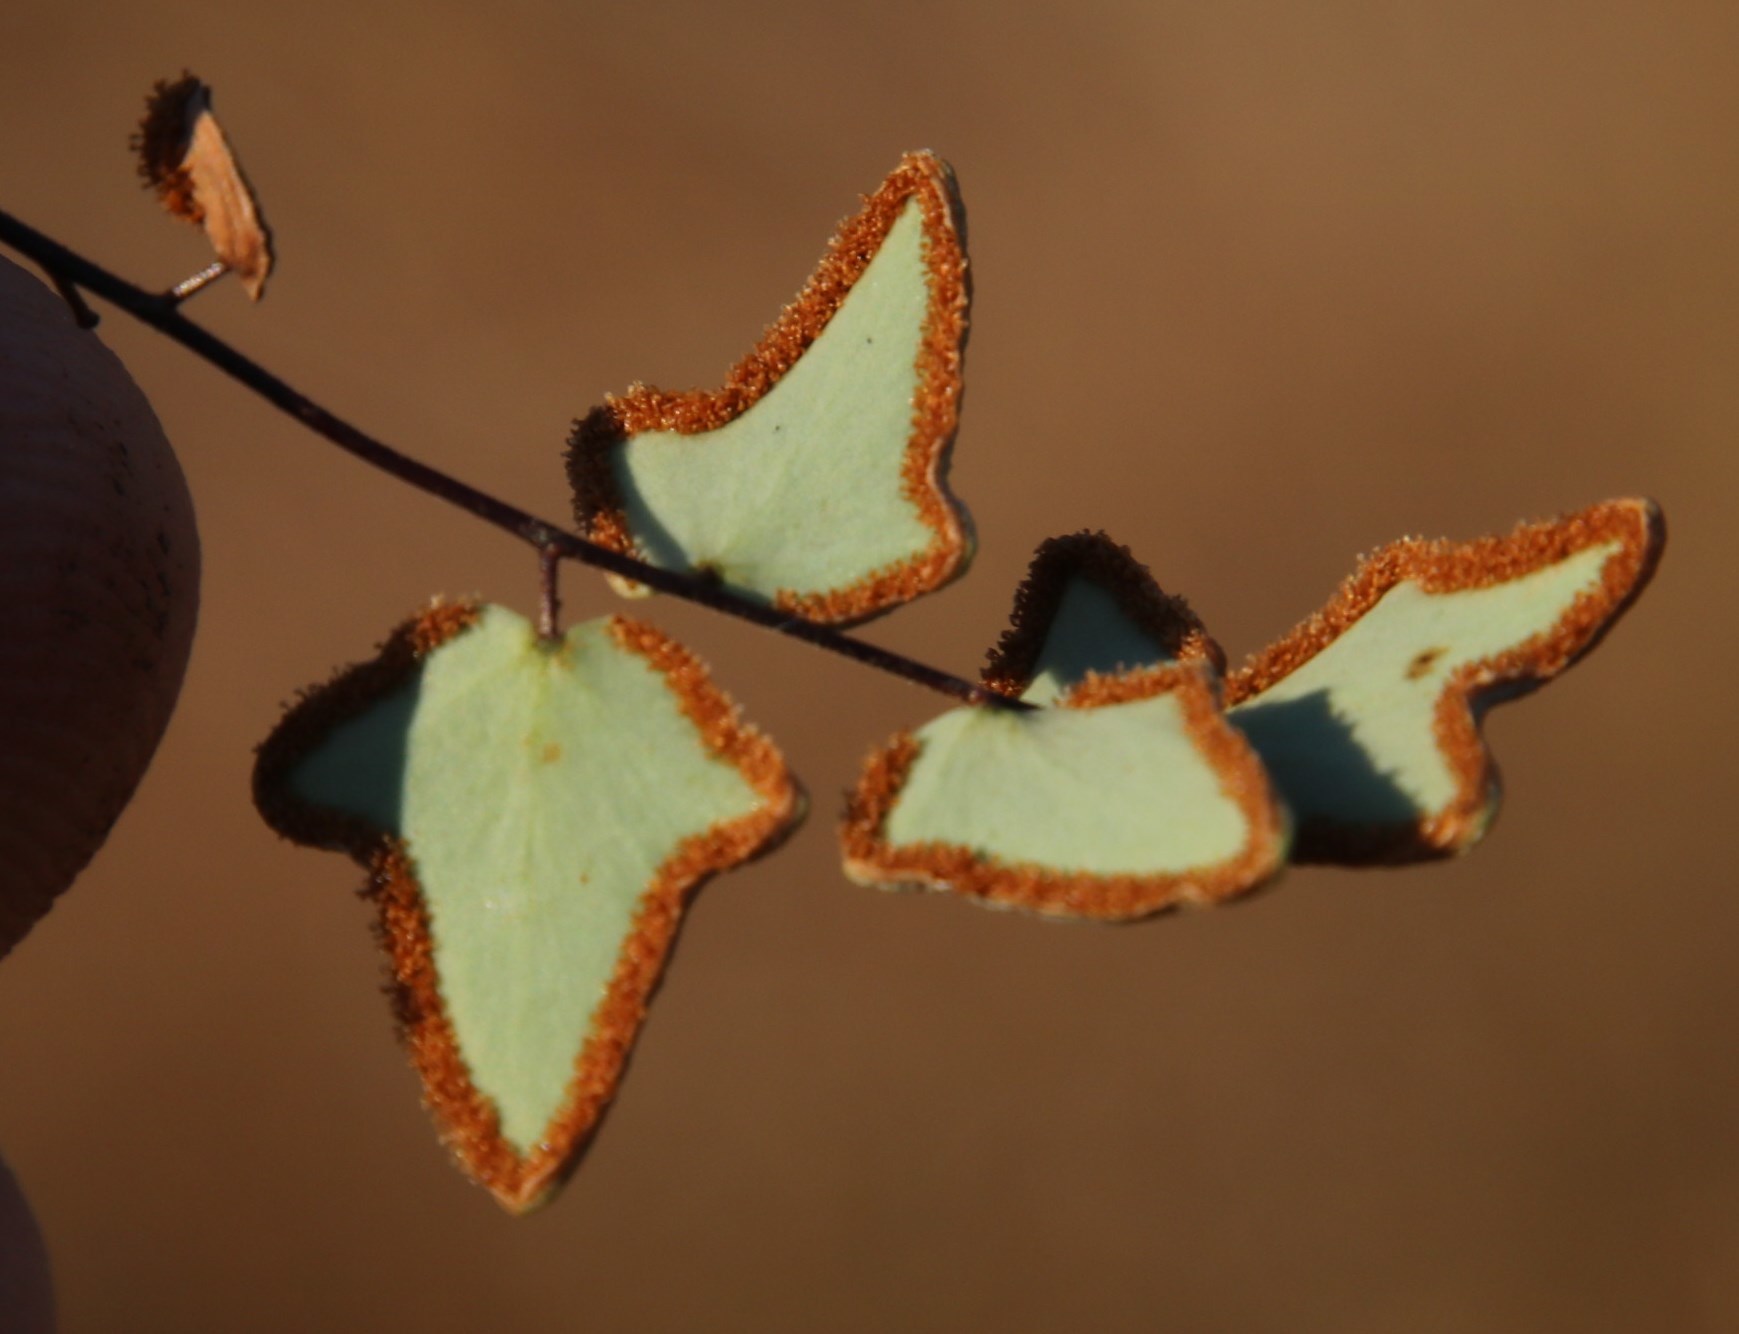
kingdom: Plantae
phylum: Tracheophyta
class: Polypodiopsida
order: Polypodiales
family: Pteridaceae
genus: Pellaea
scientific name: Pellaea calomelanos
